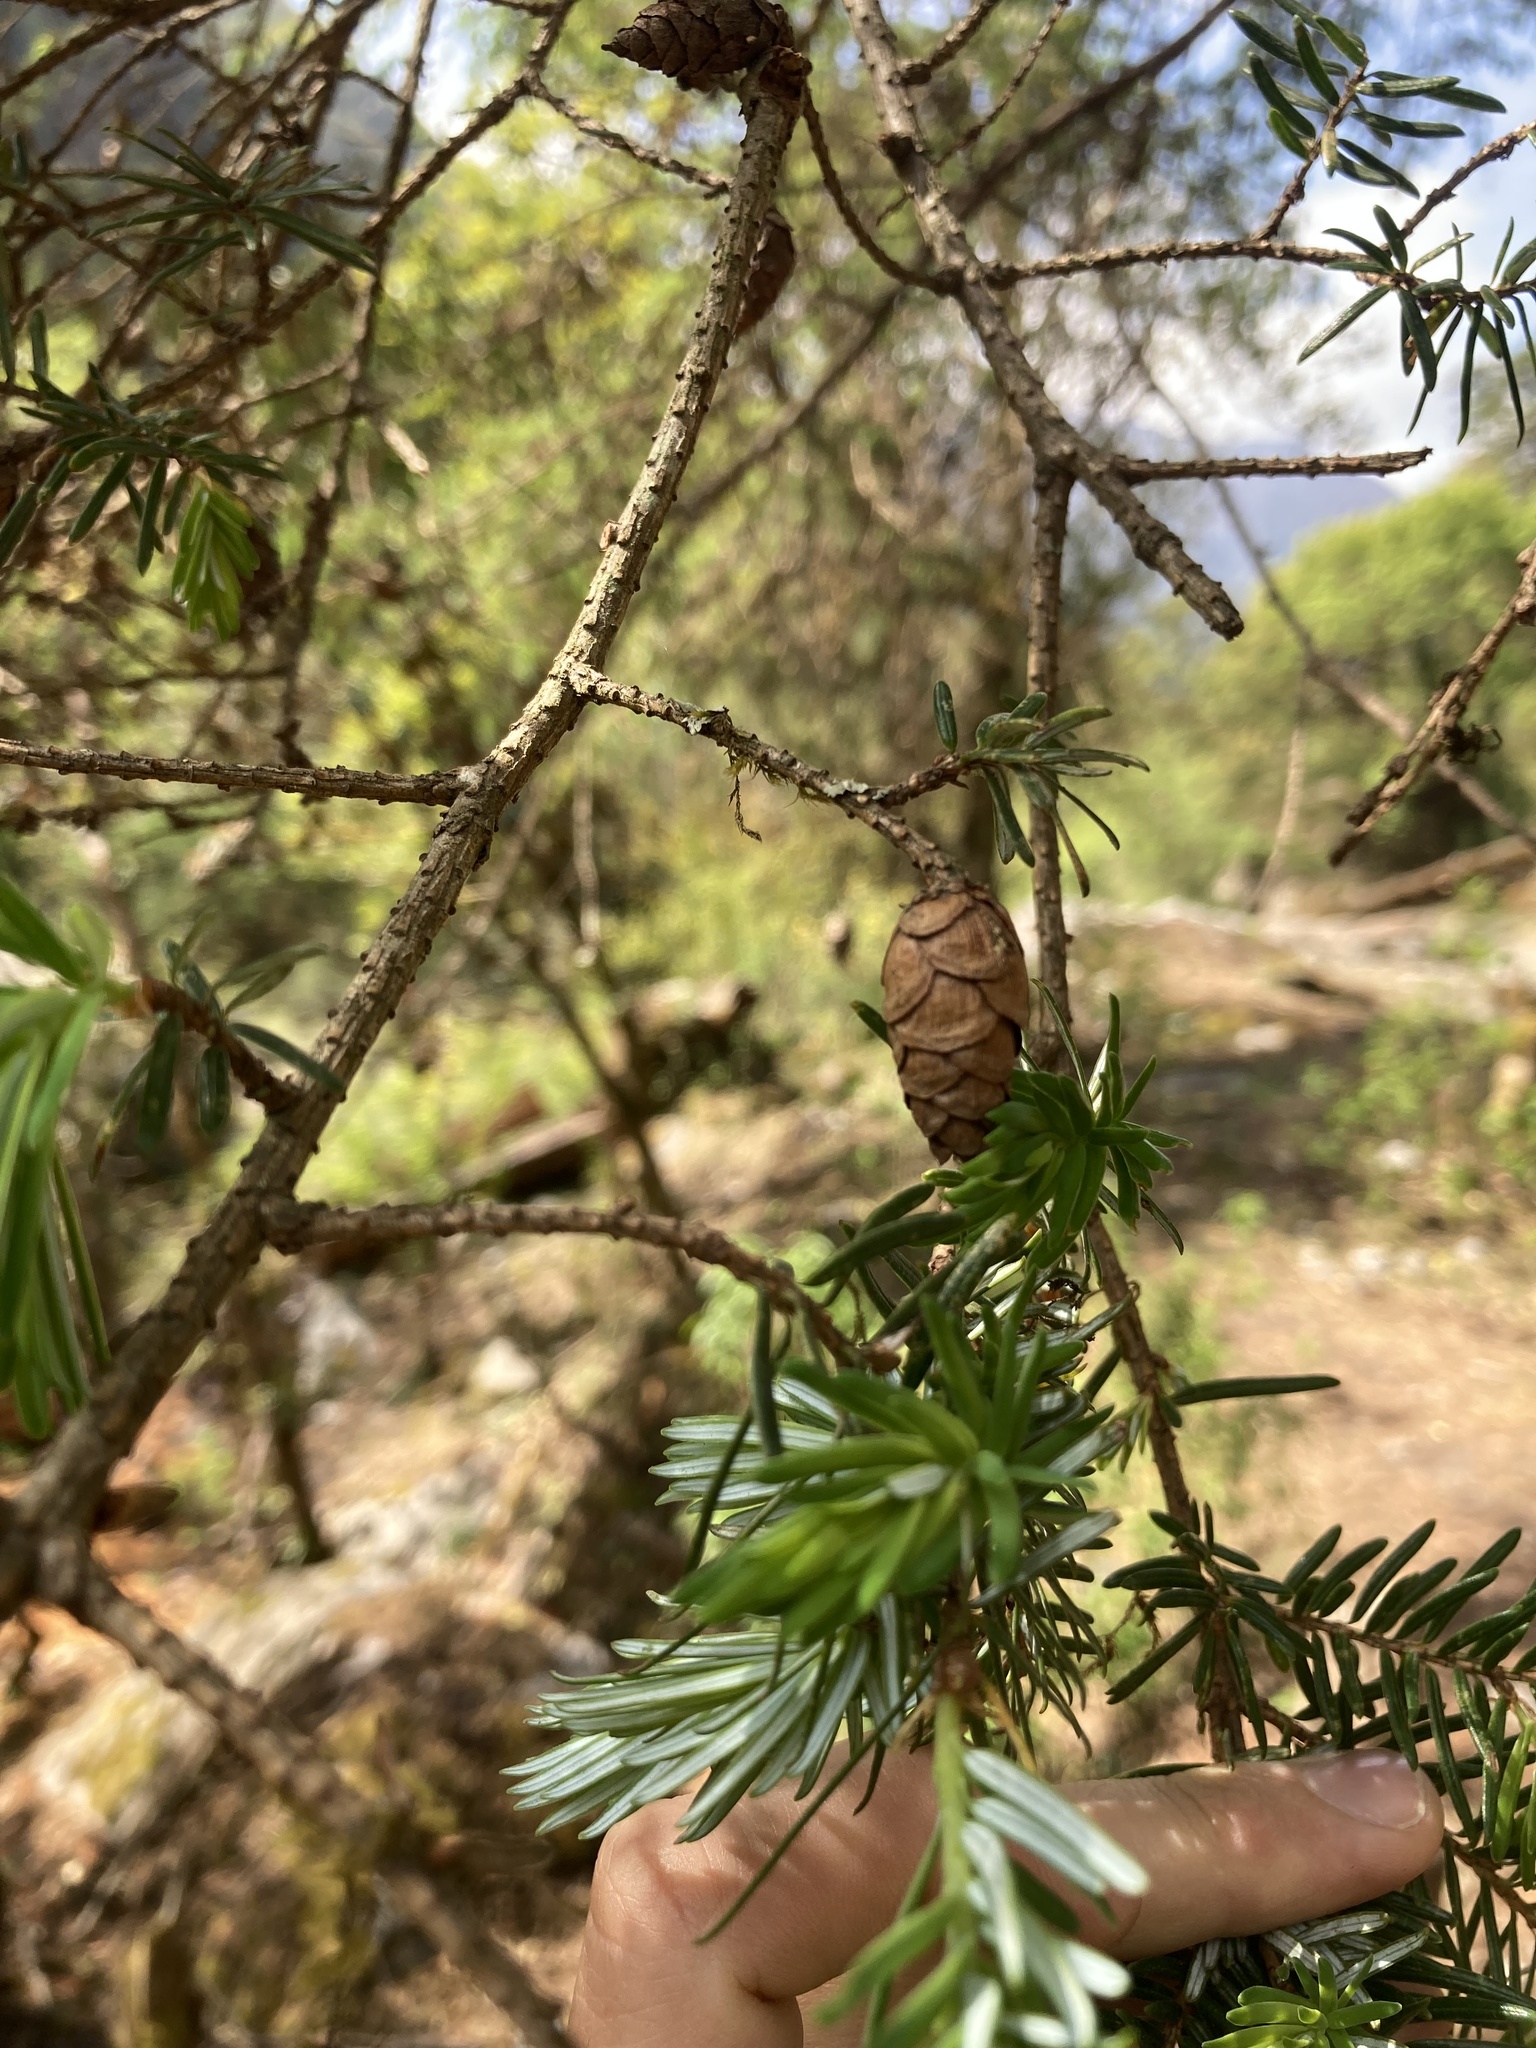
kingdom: Plantae
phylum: Tracheophyta
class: Pinopsida
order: Pinales
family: Pinaceae
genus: Tsuga
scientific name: Tsuga dumosa
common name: Himalayan hemlock
